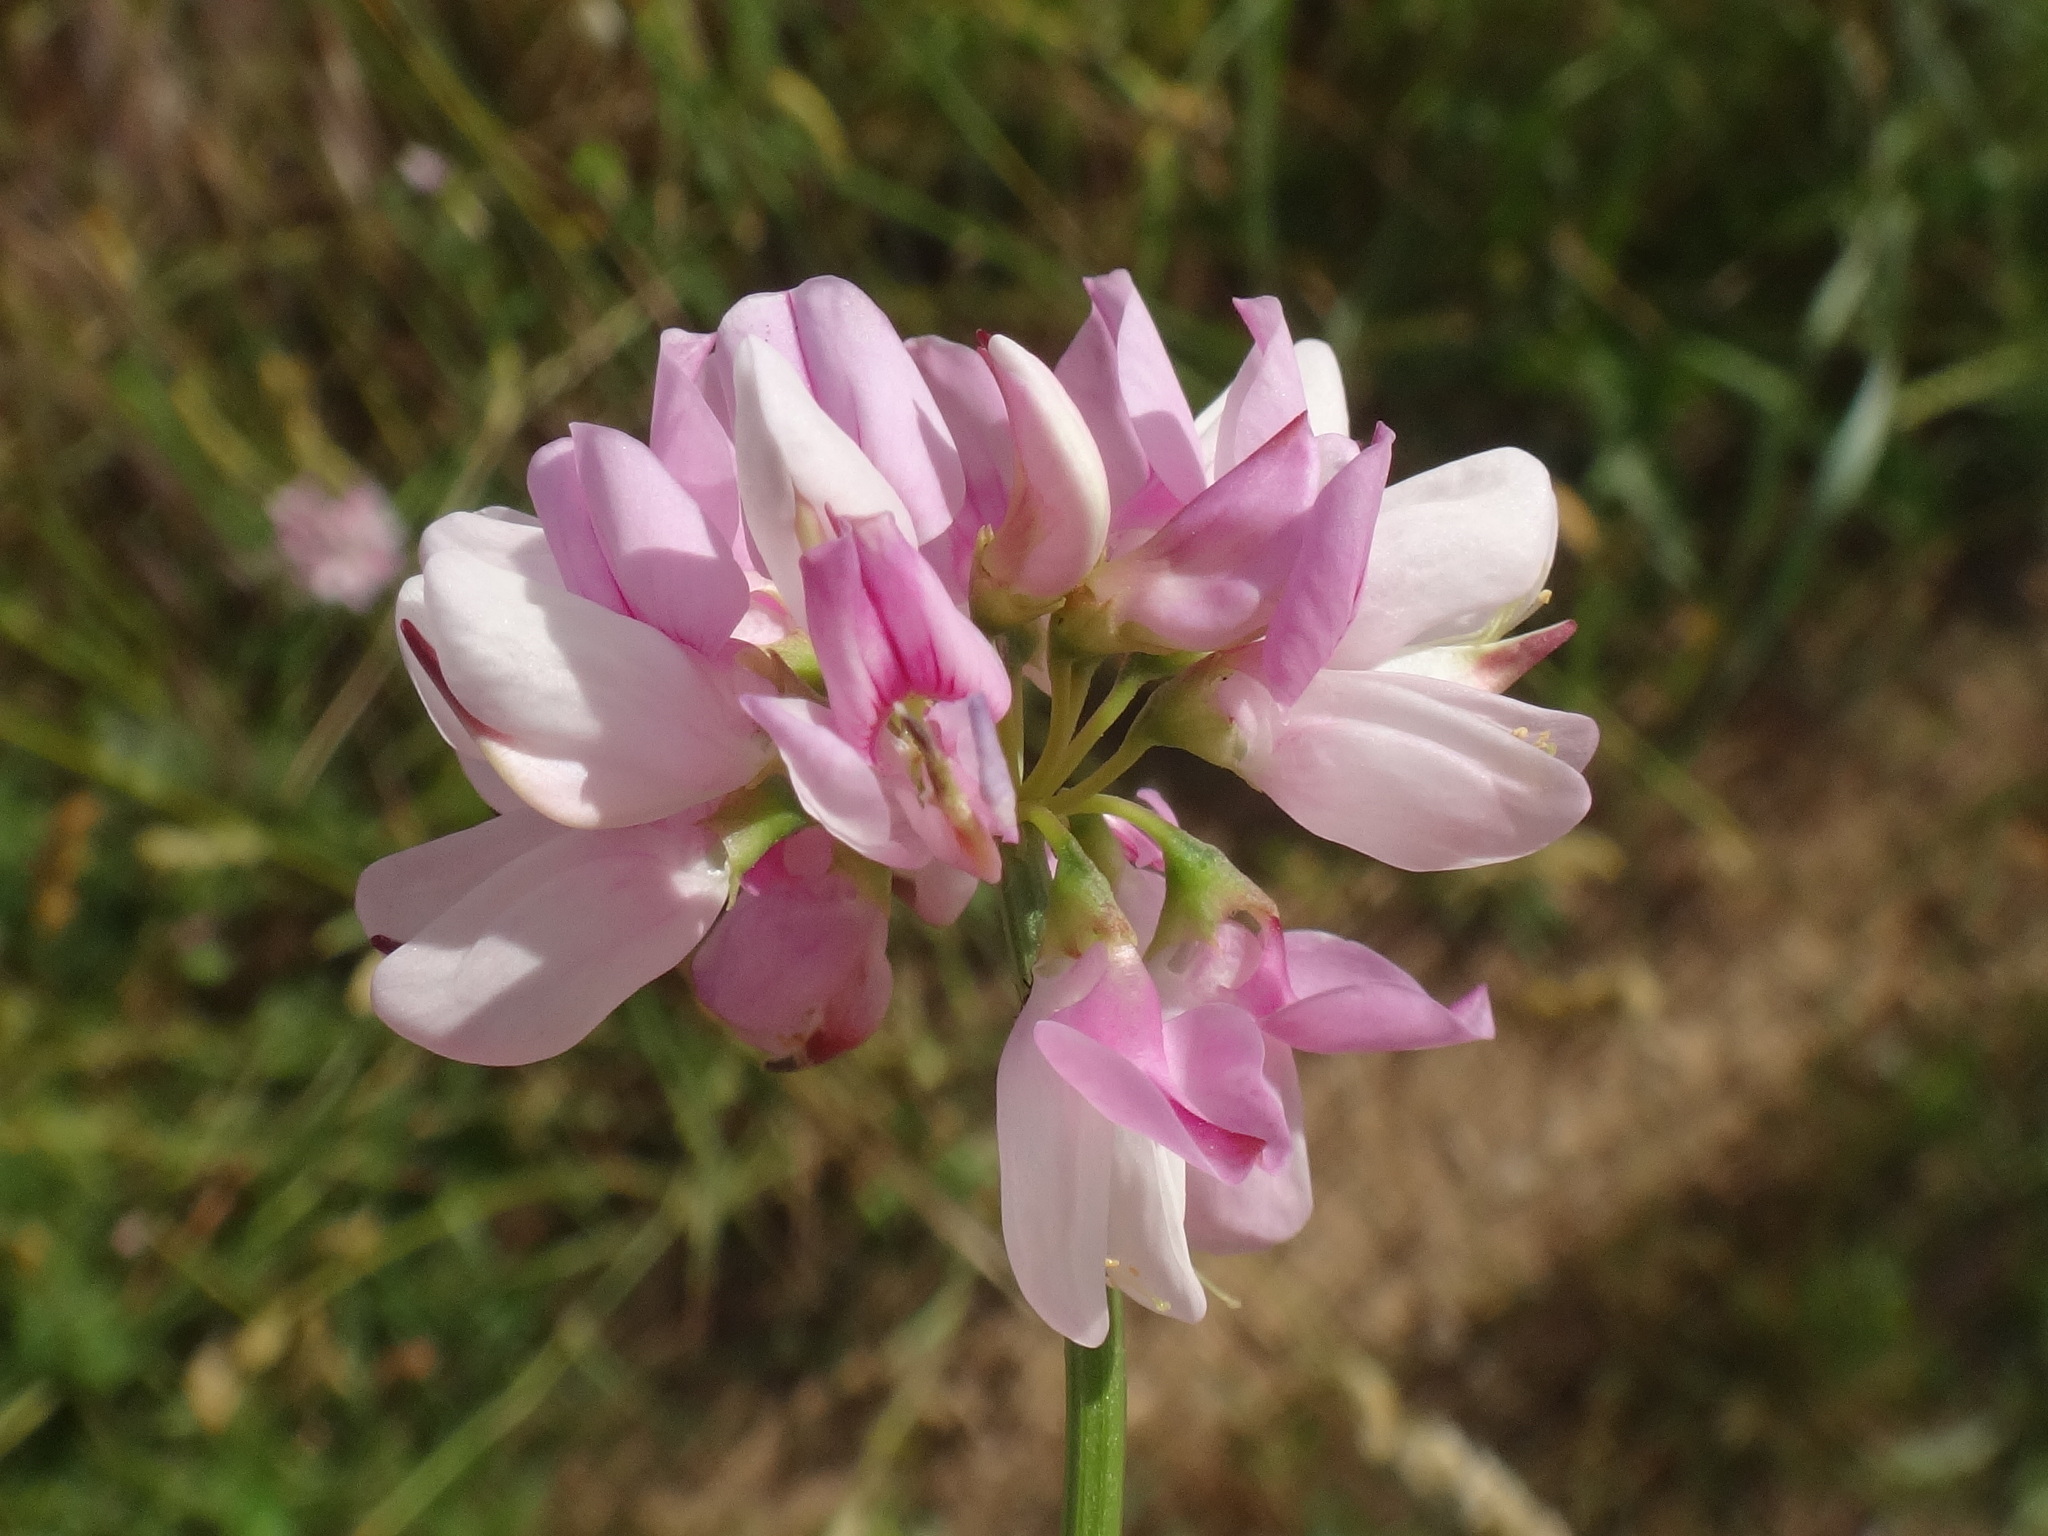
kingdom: Plantae
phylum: Tracheophyta
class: Magnoliopsida
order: Fabales
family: Fabaceae
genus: Coronilla
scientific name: Coronilla varia
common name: Crownvetch
